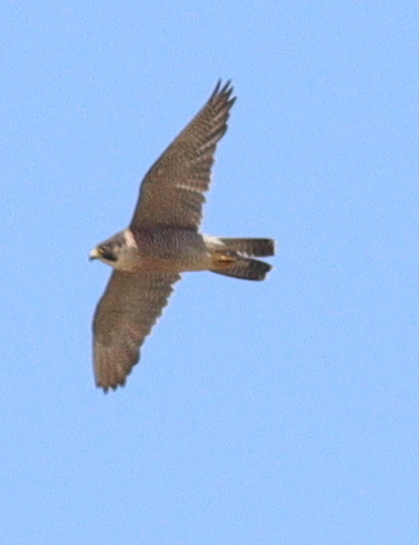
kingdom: Animalia
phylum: Chordata
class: Aves
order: Falconiformes
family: Falconidae
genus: Falco
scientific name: Falco peregrinus
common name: Peregrine falcon
